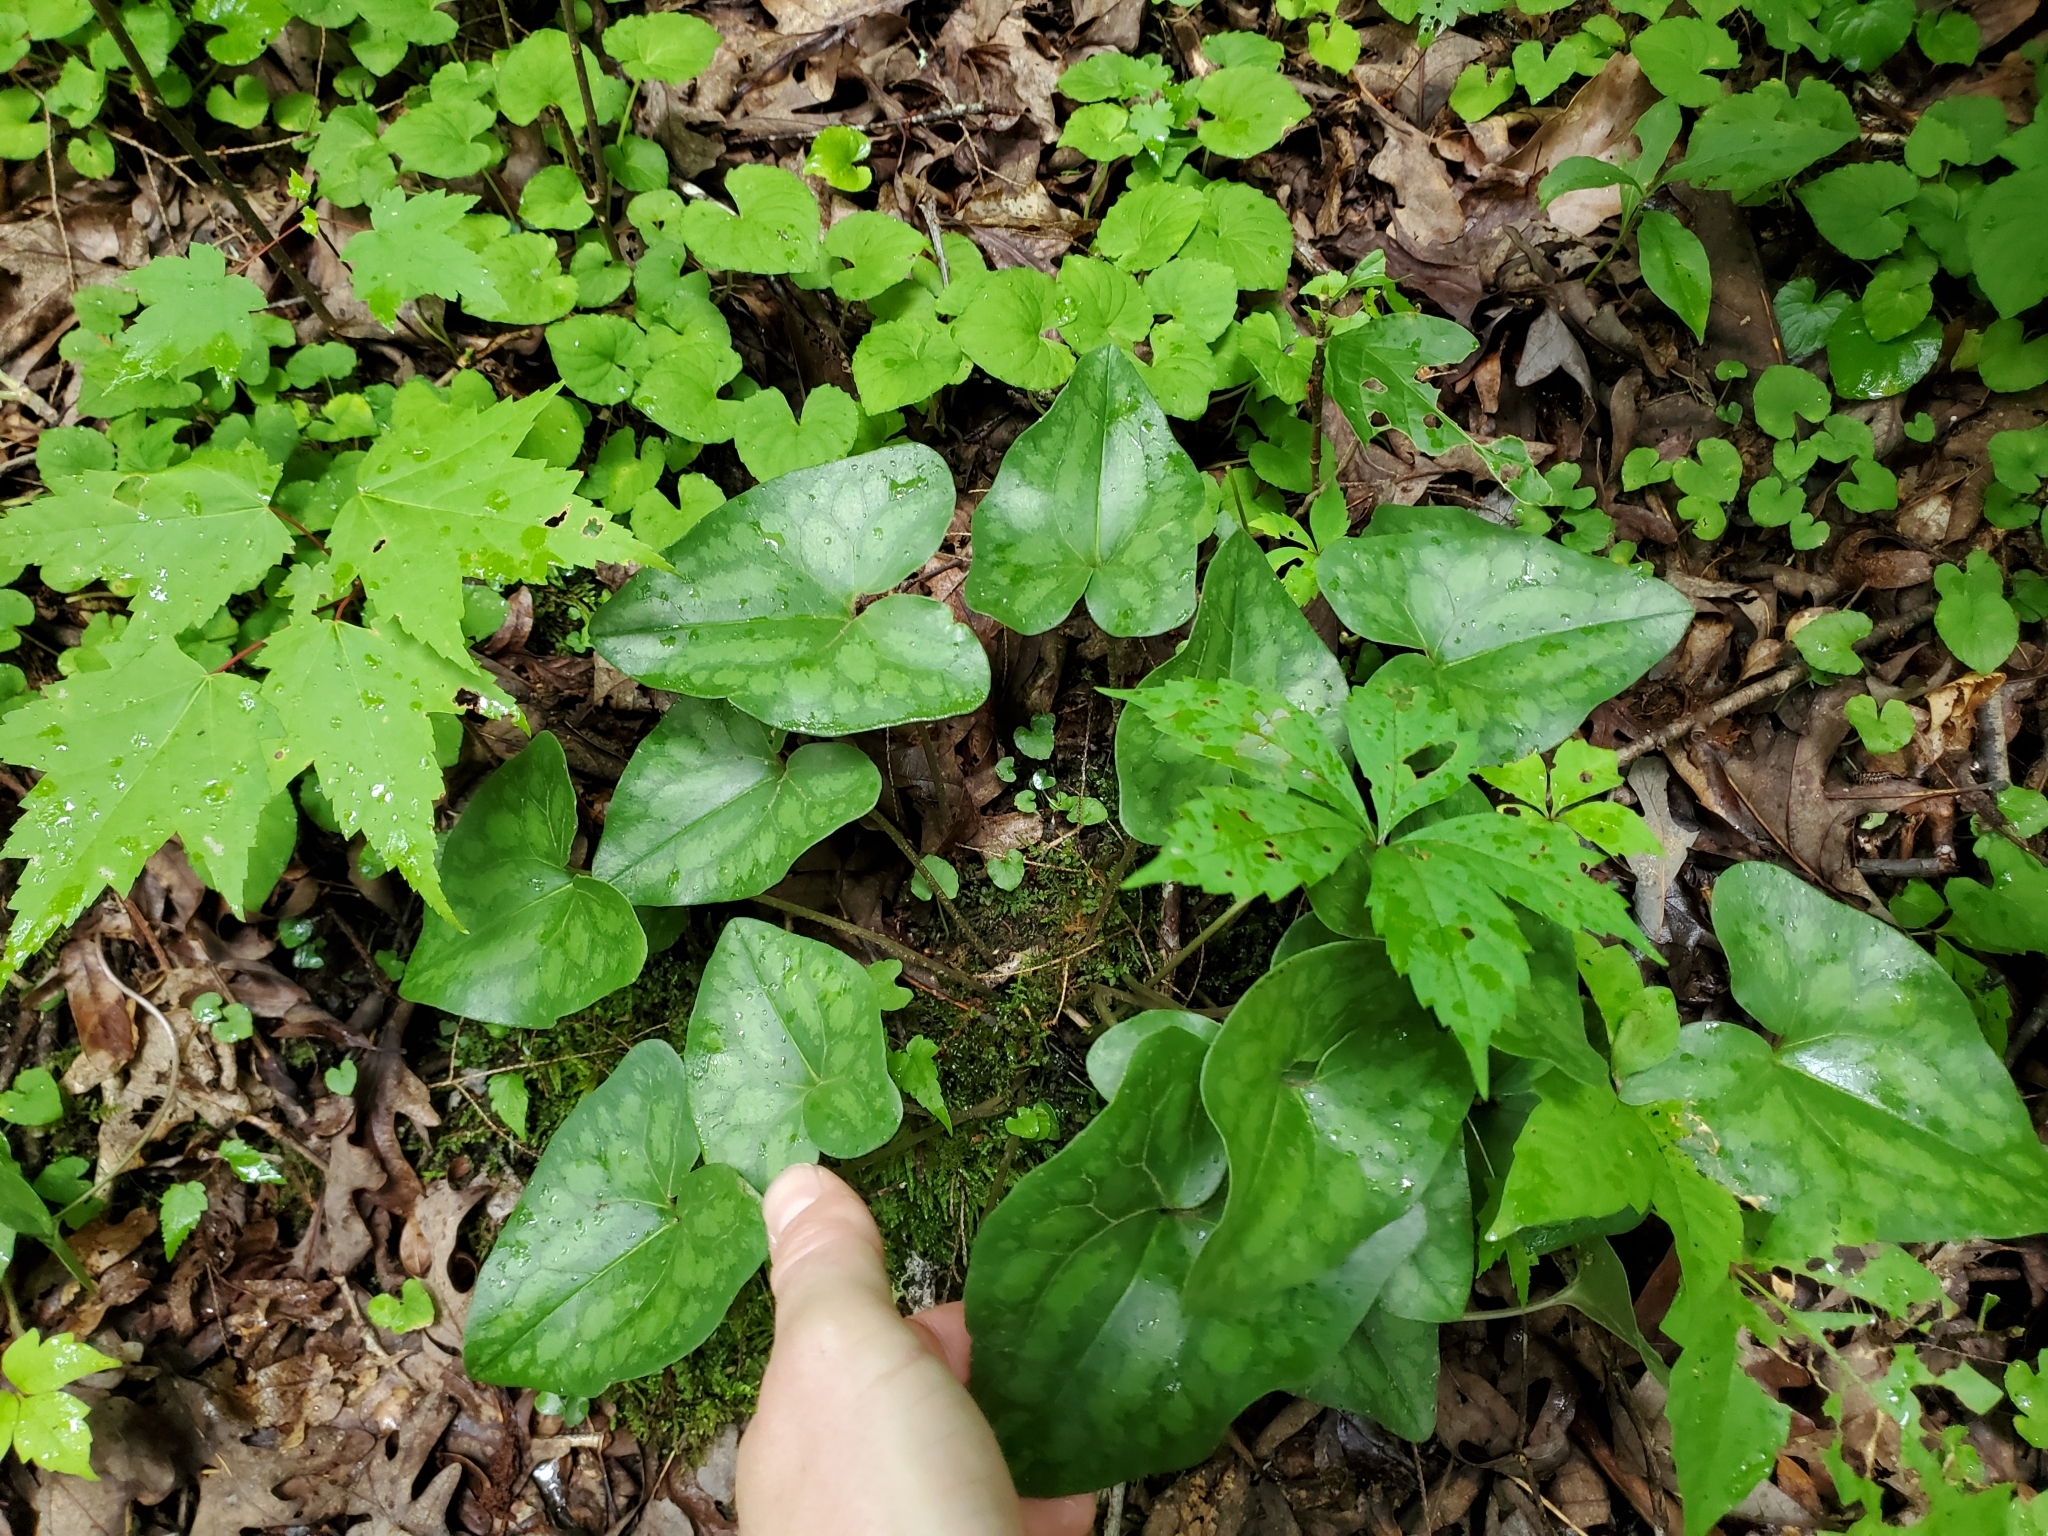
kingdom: Plantae
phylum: Tracheophyta
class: Magnoliopsida
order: Piperales
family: Aristolochiaceae
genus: Hexastylis
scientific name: Hexastylis arifolia
